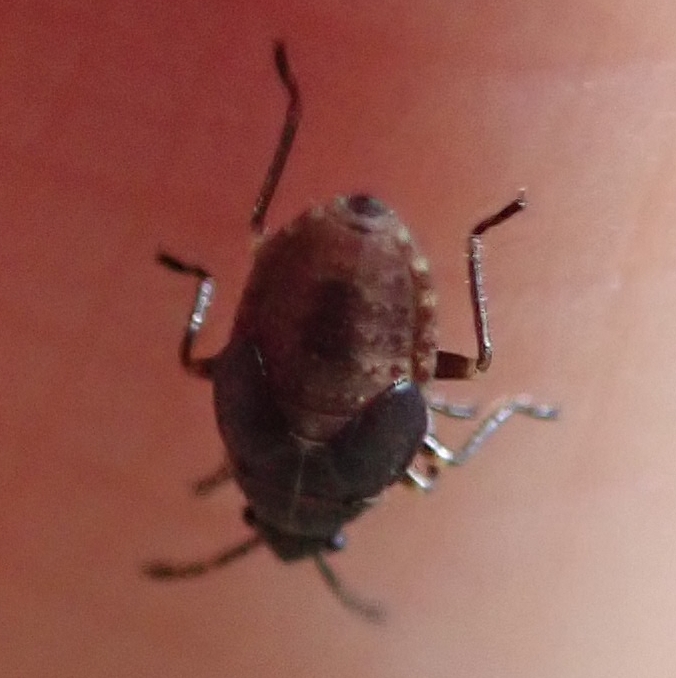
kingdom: Animalia
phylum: Arthropoda
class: Insecta
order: Hemiptera
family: Lygaeidae
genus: Kleidocerys
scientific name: Kleidocerys resedae
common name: Birch catkin bug
